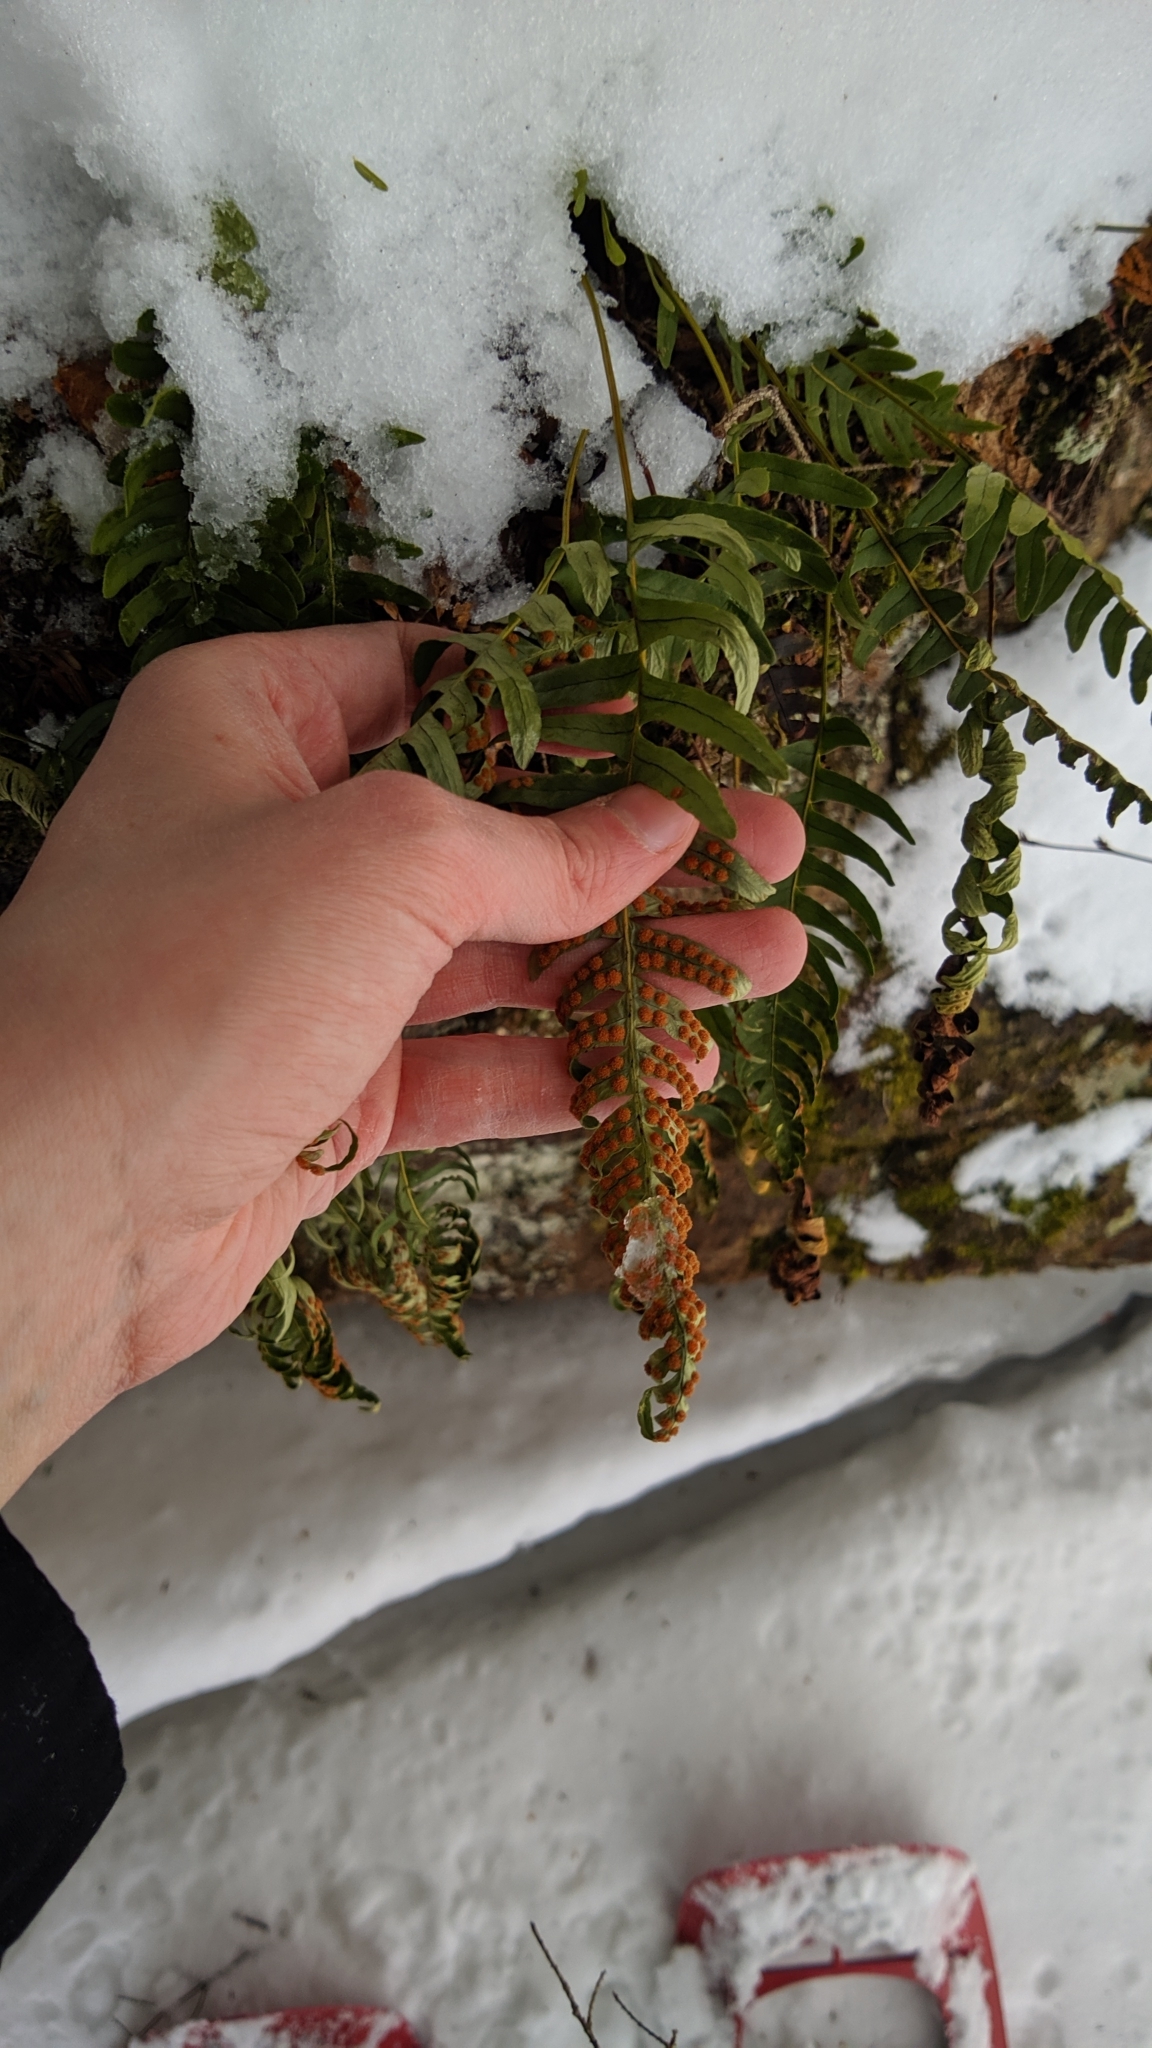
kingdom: Plantae
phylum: Tracheophyta
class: Polypodiopsida
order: Polypodiales
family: Polypodiaceae
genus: Polypodium
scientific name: Polypodium virginianum
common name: American wall fern
